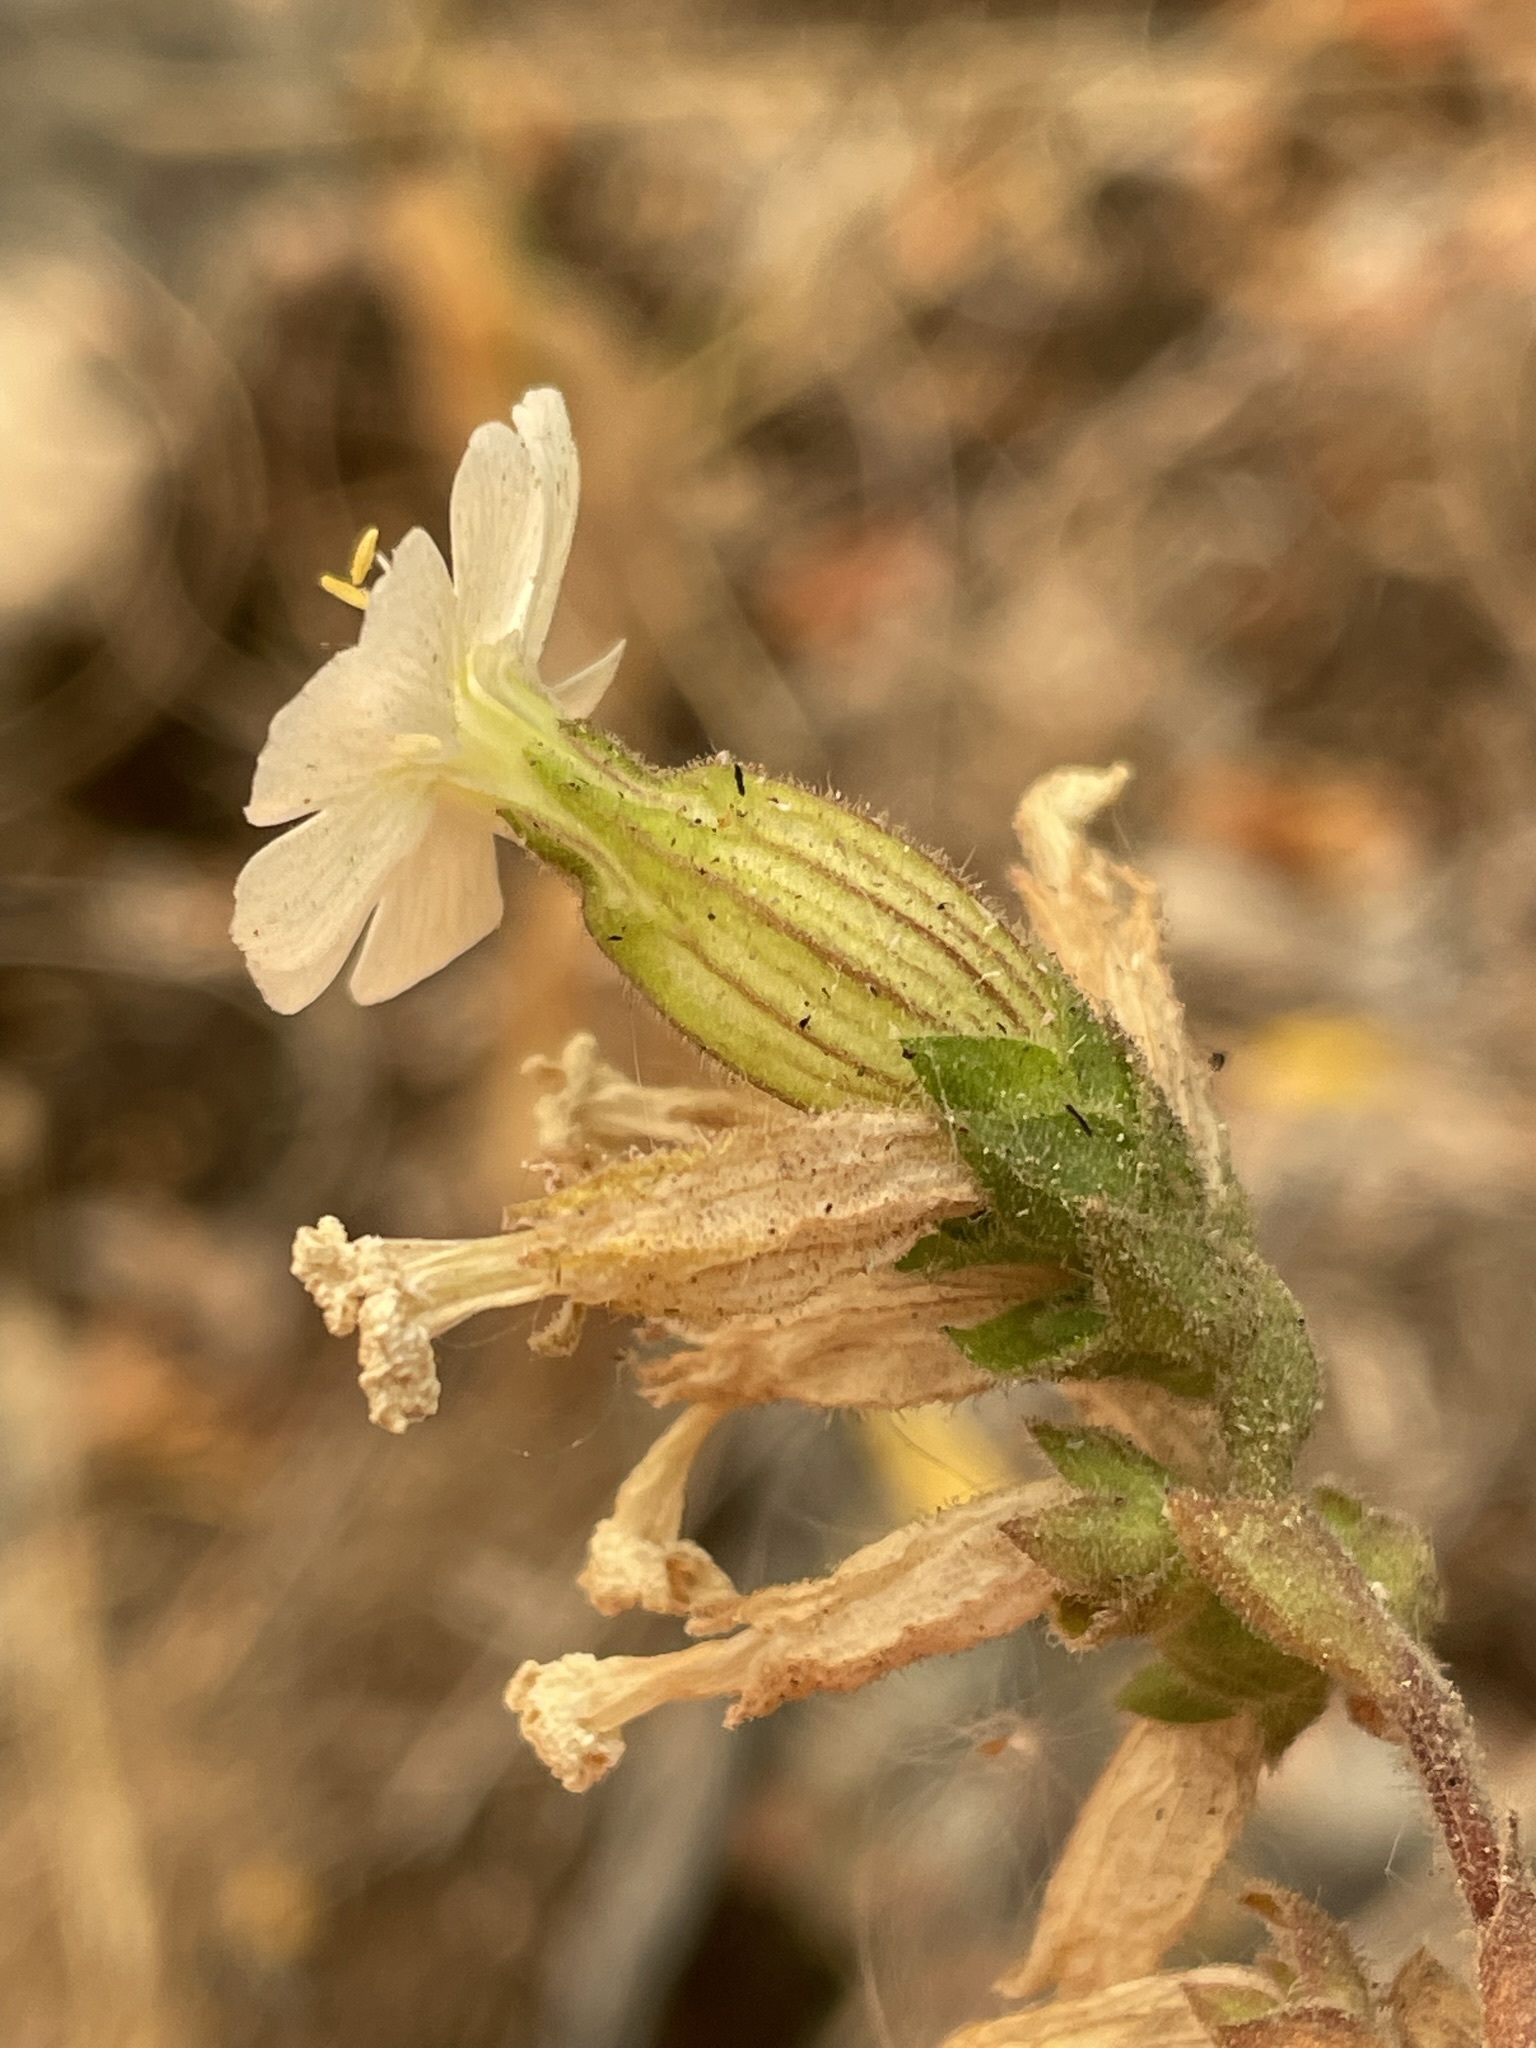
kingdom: Plantae
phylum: Tracheophyta
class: Magnoliopsida
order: Caryophyllales
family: Caryophyllaceae
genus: Silene
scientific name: Silene latifolia
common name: White campion
